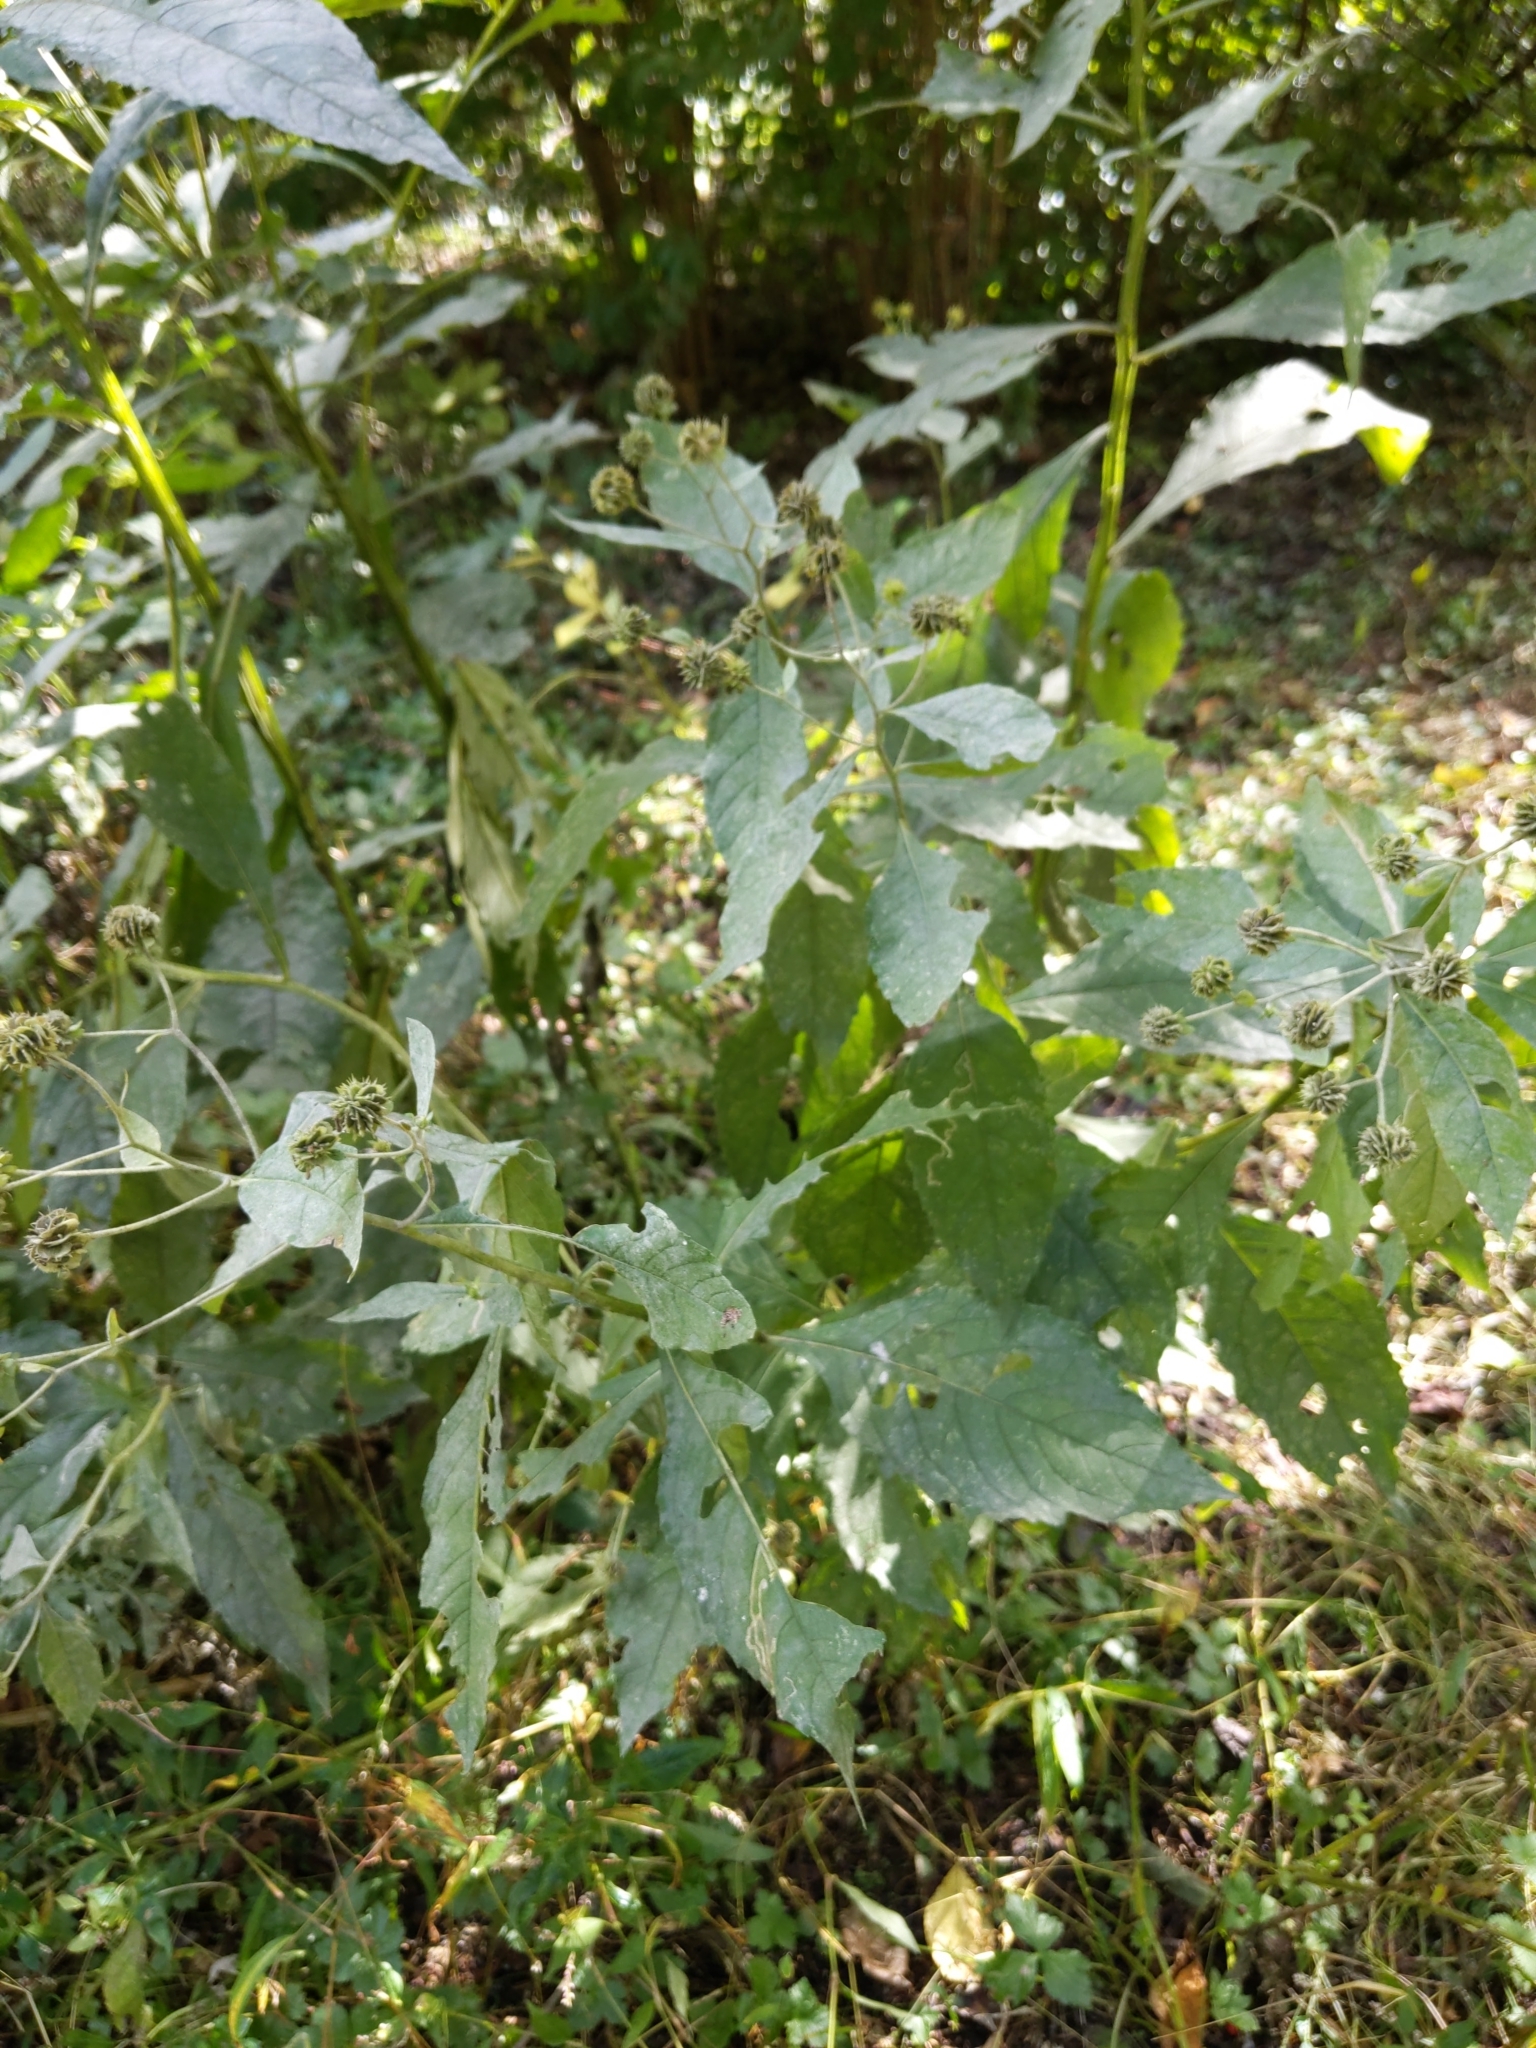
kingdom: Plantae
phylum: Tracheophyta
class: Magnoliopsida
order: Asterales
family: Asteraceae
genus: Verbesina
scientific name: Verbesina alternifolia
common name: Wingstem
